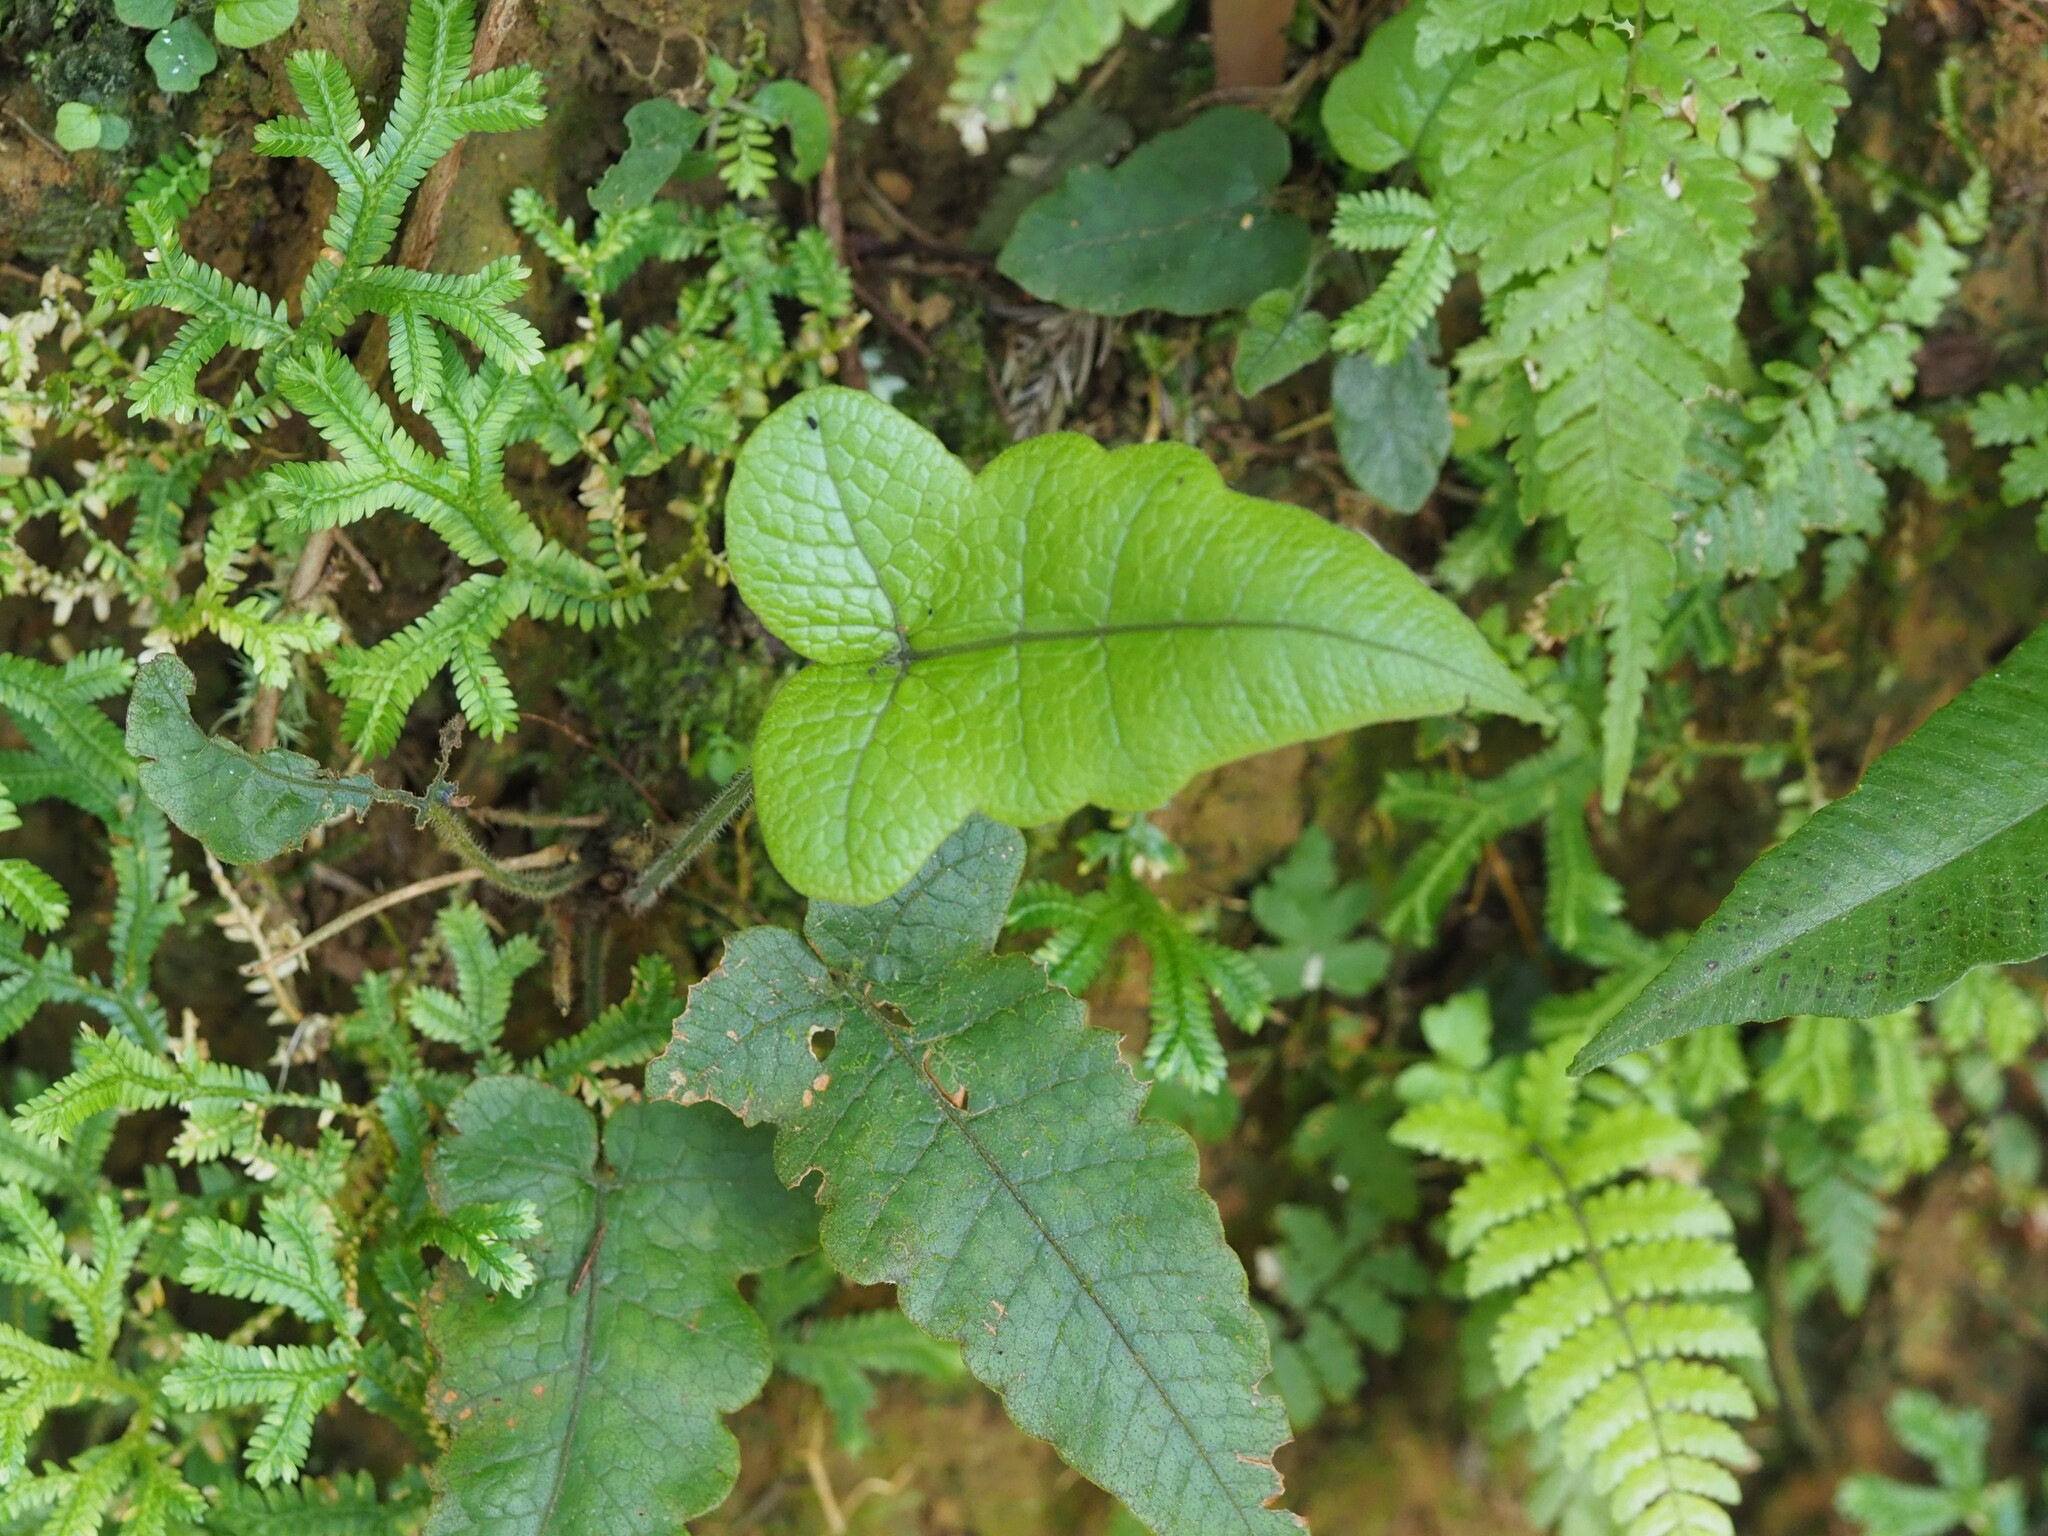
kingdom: Plantae
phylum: Tracheophyta
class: Polypodiopsida
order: Polypodiales
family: Thelypteridaceae
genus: Stegnogramma
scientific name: Stegnogramma wilfordii
